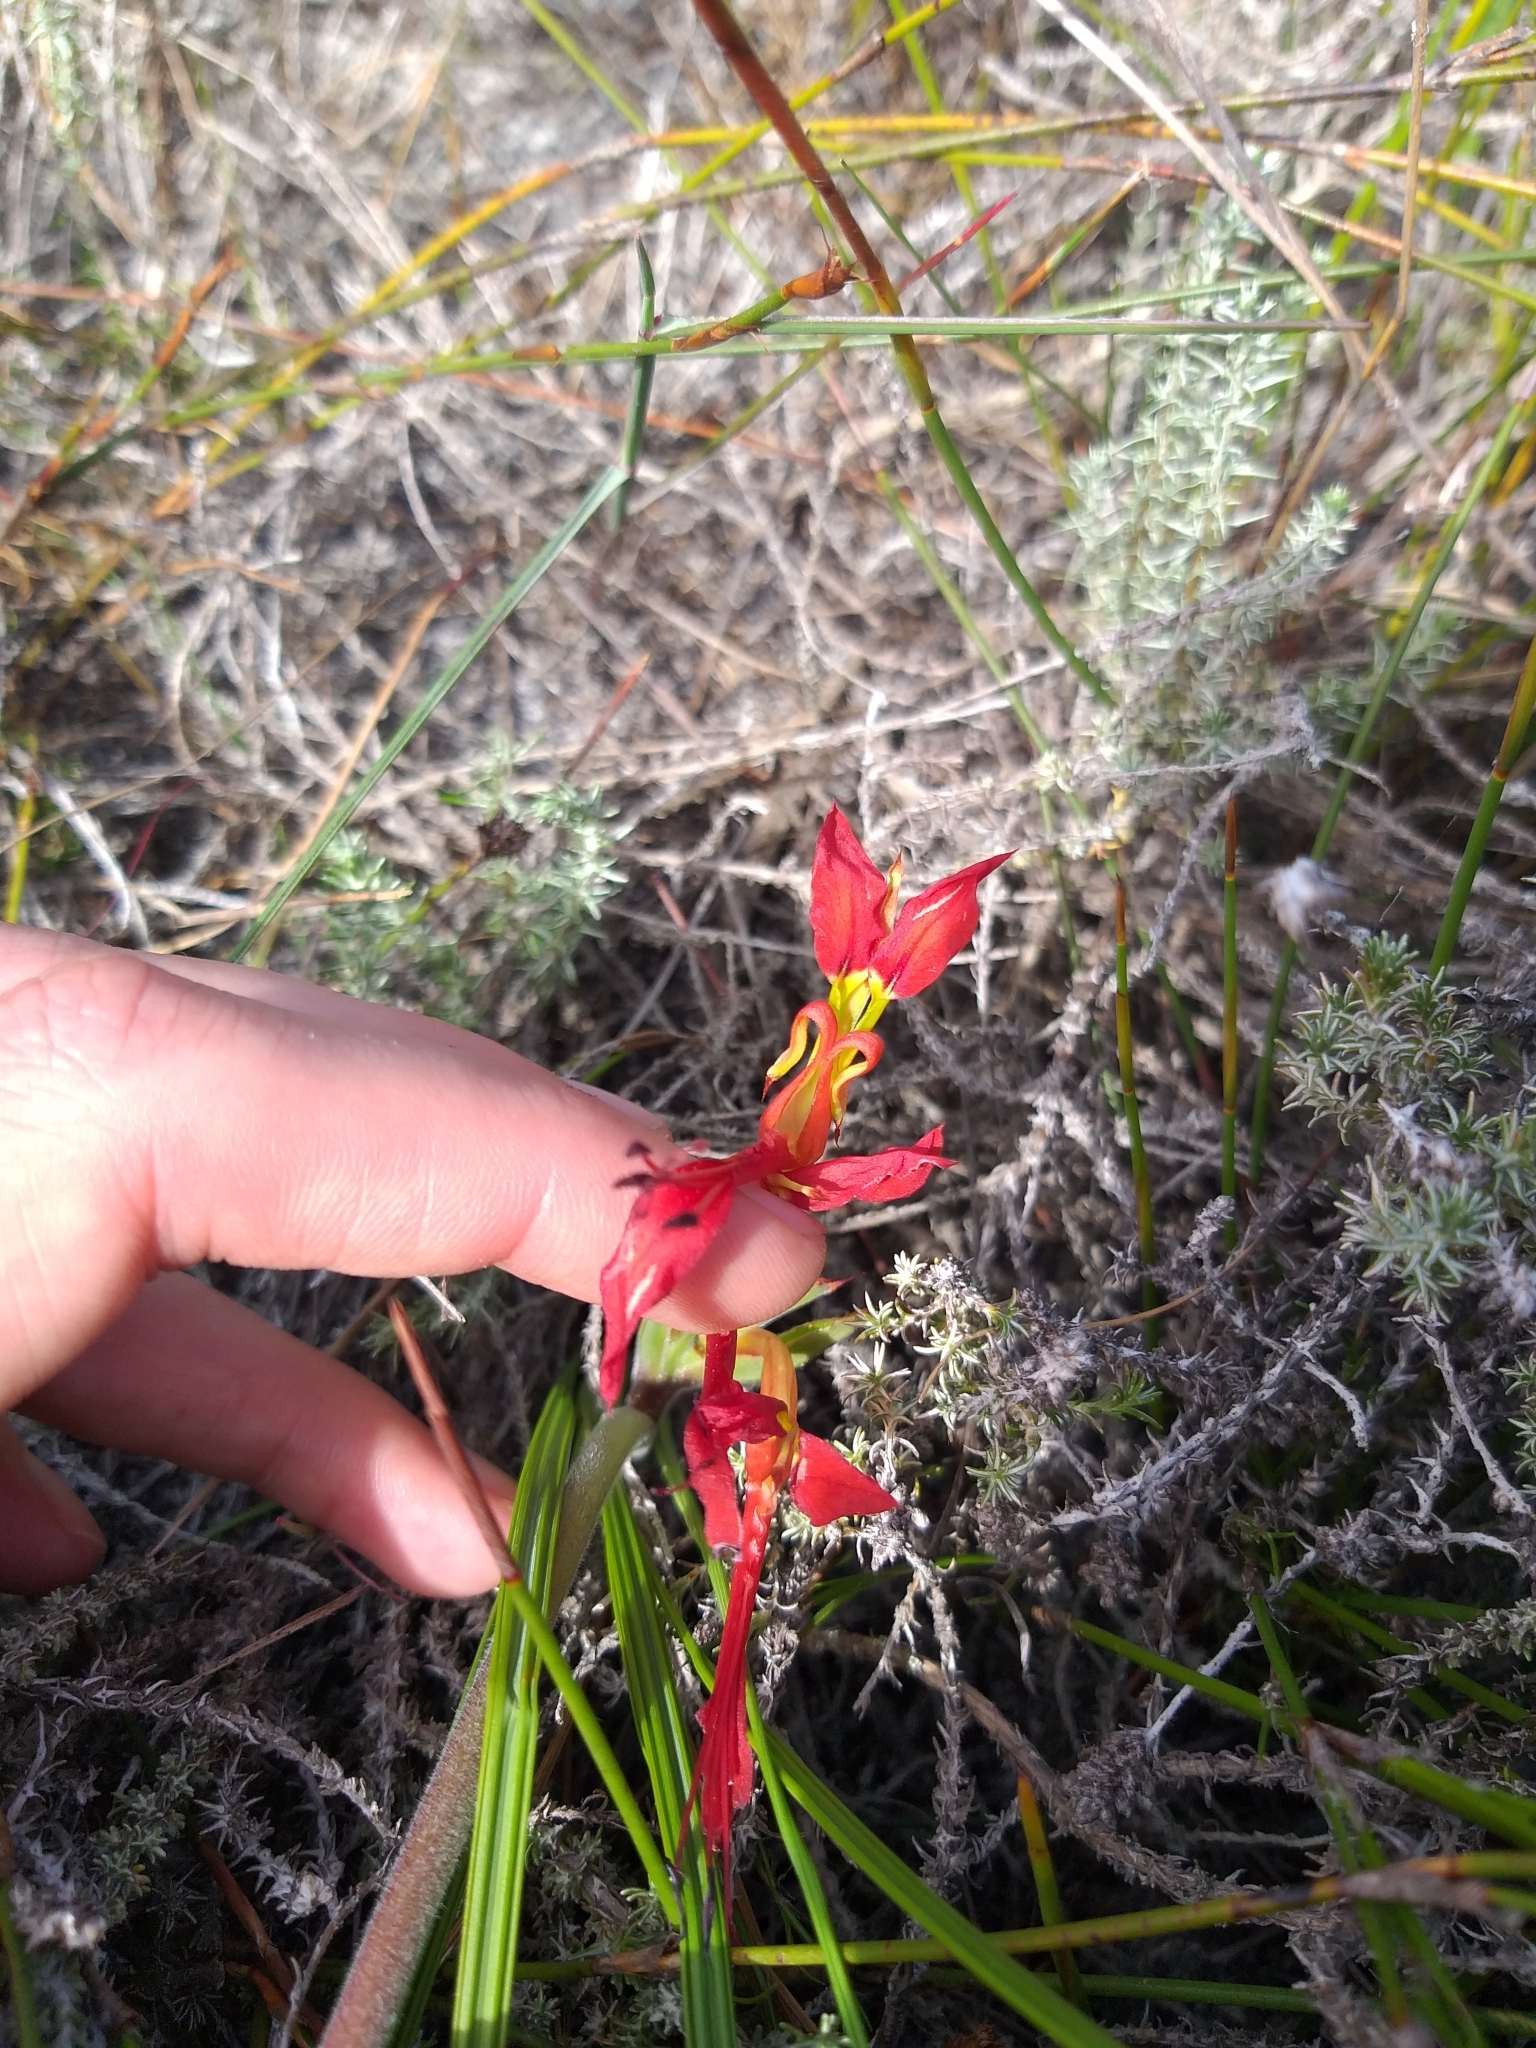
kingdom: Plantae
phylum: Tracheophyta
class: Liliopsida
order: Asparagales
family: Iridaceae
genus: Babiana
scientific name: Babiana ringens
